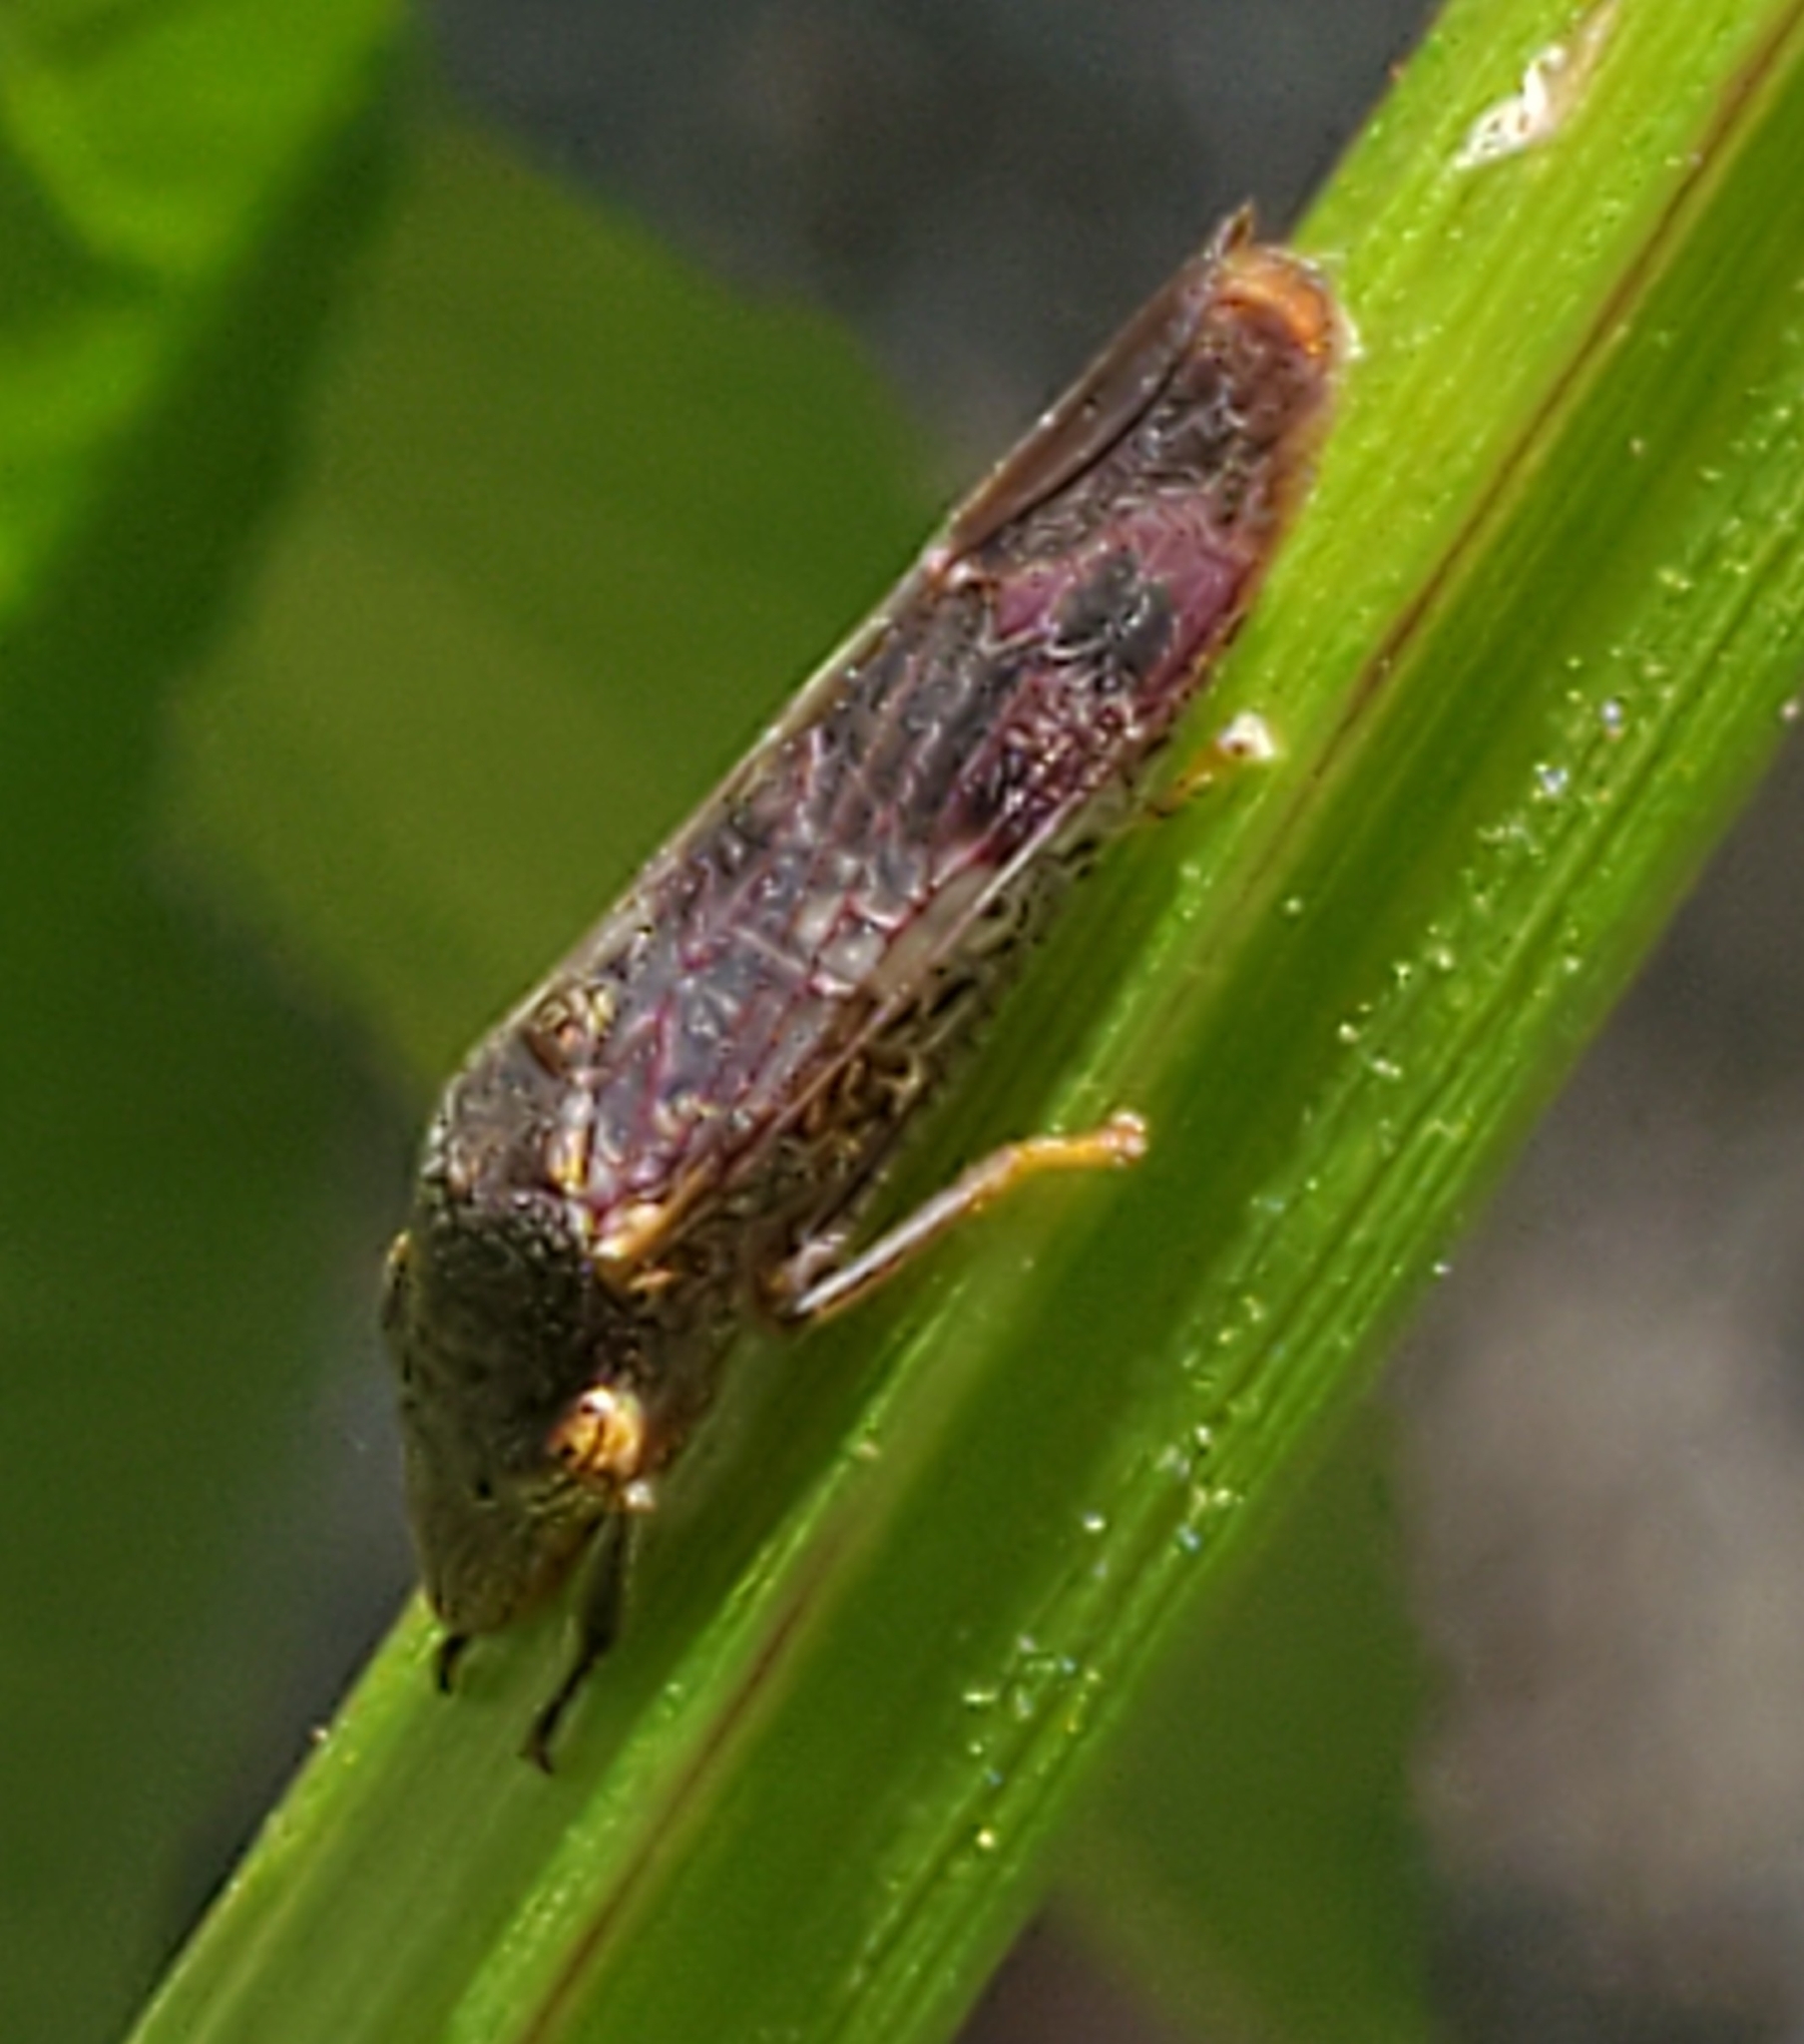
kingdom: Animalia
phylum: Arthropoda
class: Insecta
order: Hemiptera
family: Cicadellidae
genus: Homalodisca
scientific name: Homalodisca vitripennis
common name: Glassy-winged sharpshooter
